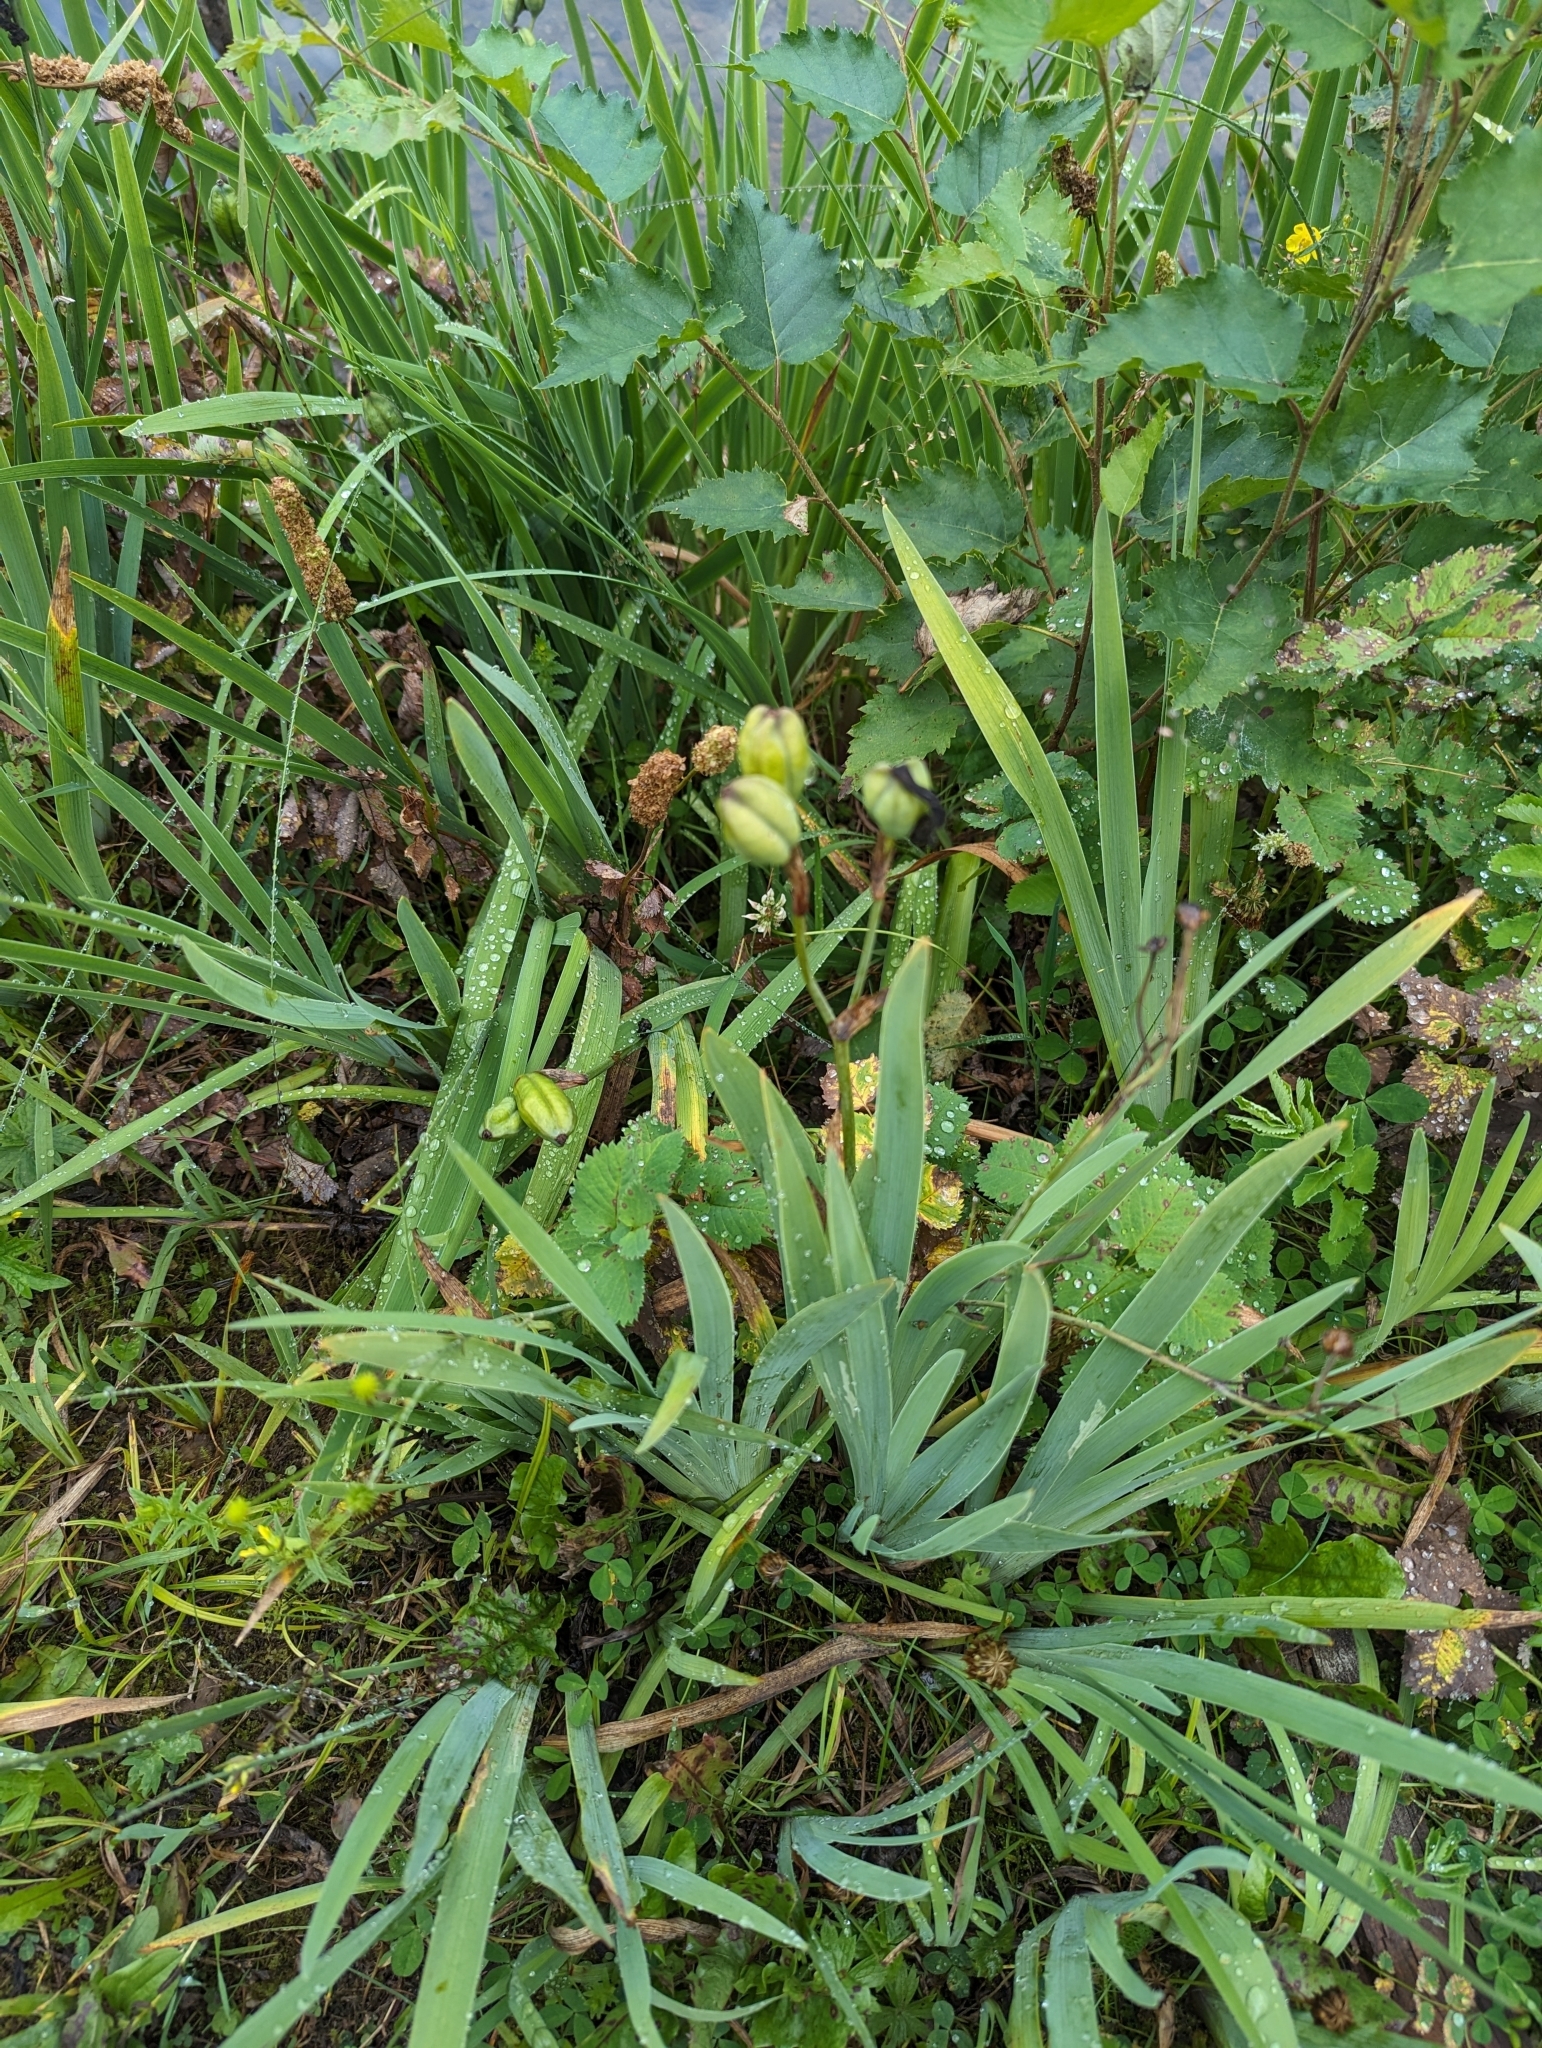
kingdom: Plantae
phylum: Tracheophyta
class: Liliopsida
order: Asparagales
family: Iridaceae
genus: Iris
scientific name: Iris setosa
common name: Arctic blue flag
